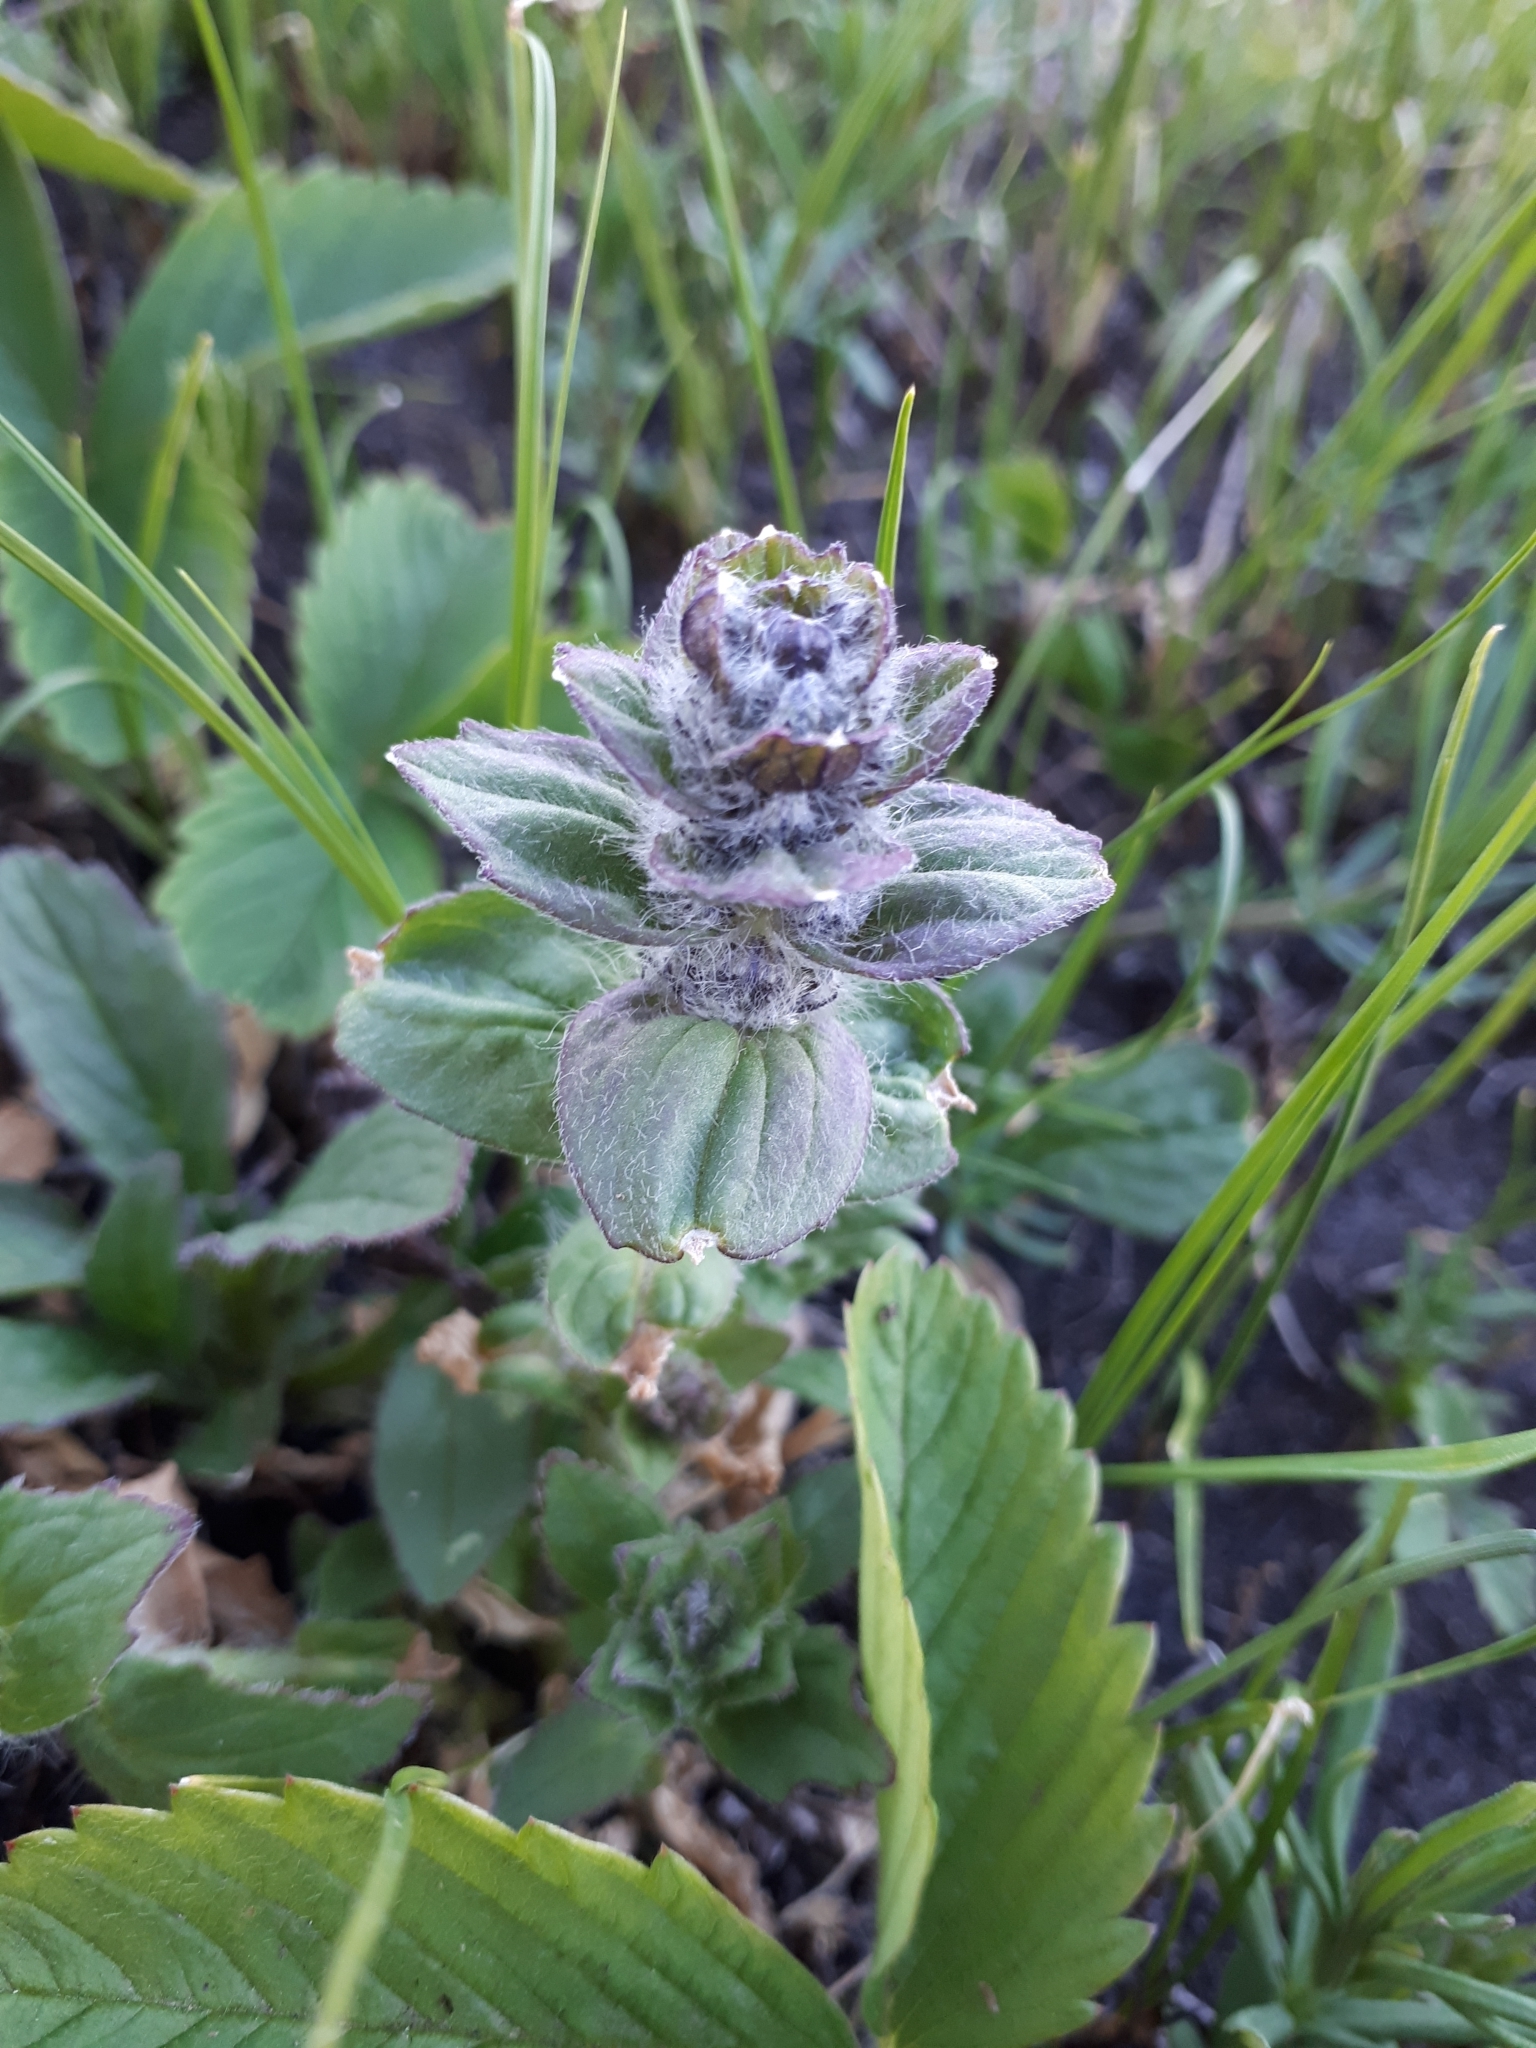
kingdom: Plantae
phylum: Tracheophyta
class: Magnoliopsida
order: Lamiales
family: Lamiaceae
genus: Ajuga
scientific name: Ajuga genevensis
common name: Blue bugle
